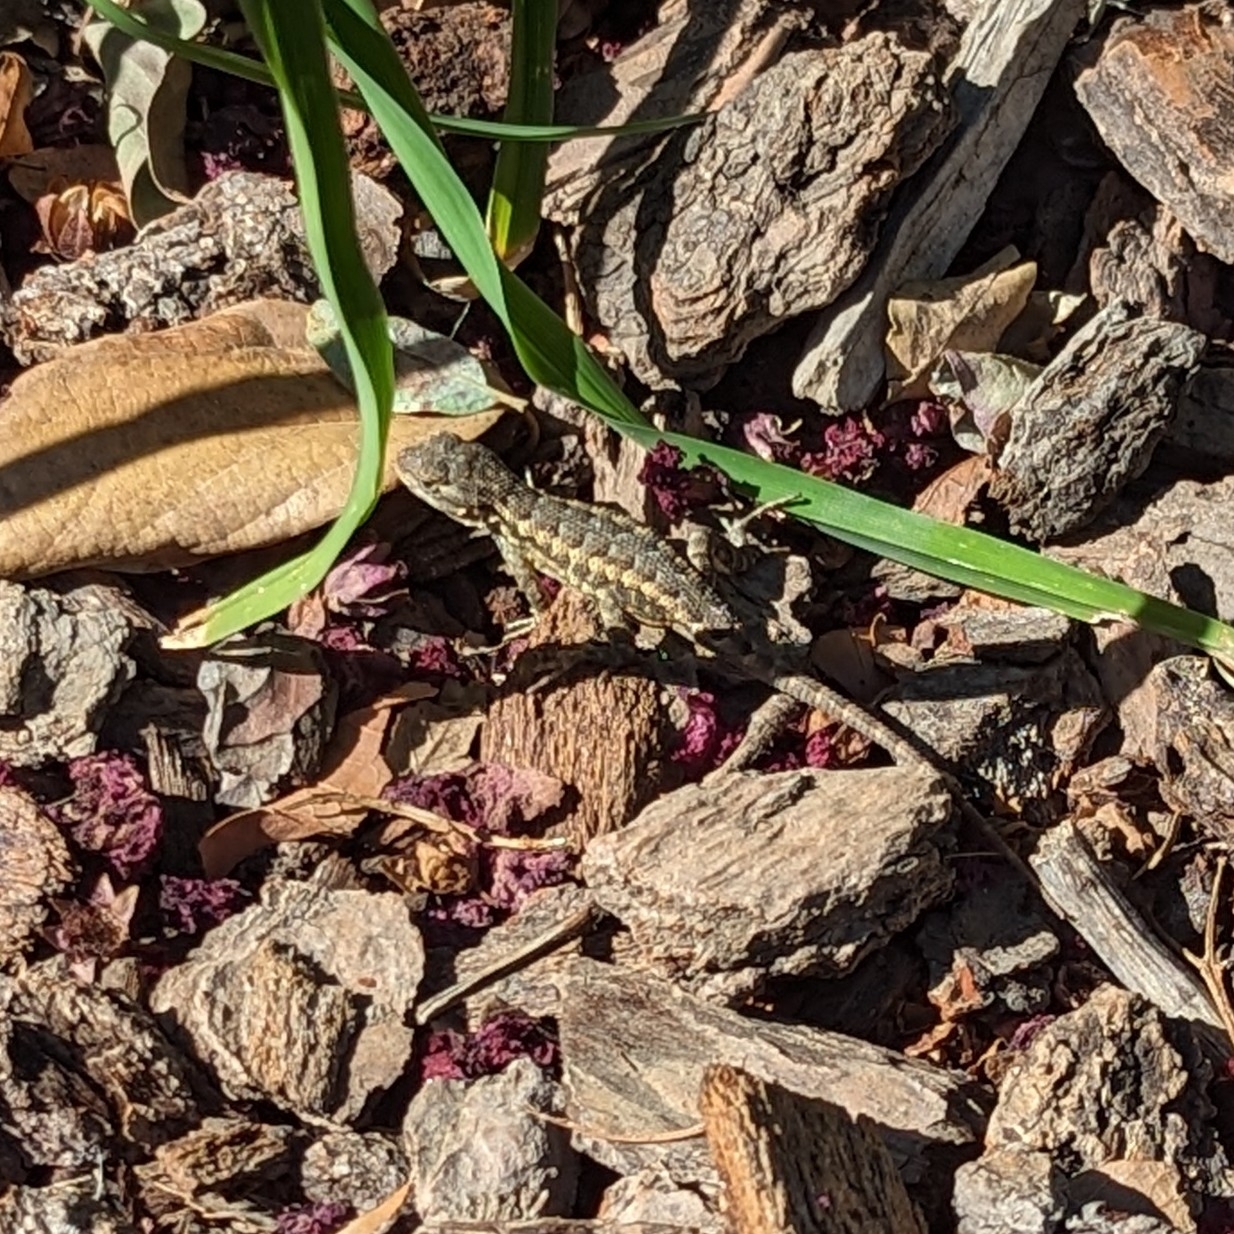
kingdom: Animalia
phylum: Chordata
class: Squamata
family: Phrynosomatidae
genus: Sceloporus
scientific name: Sceloporus occidentalis
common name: Western fence lizard
